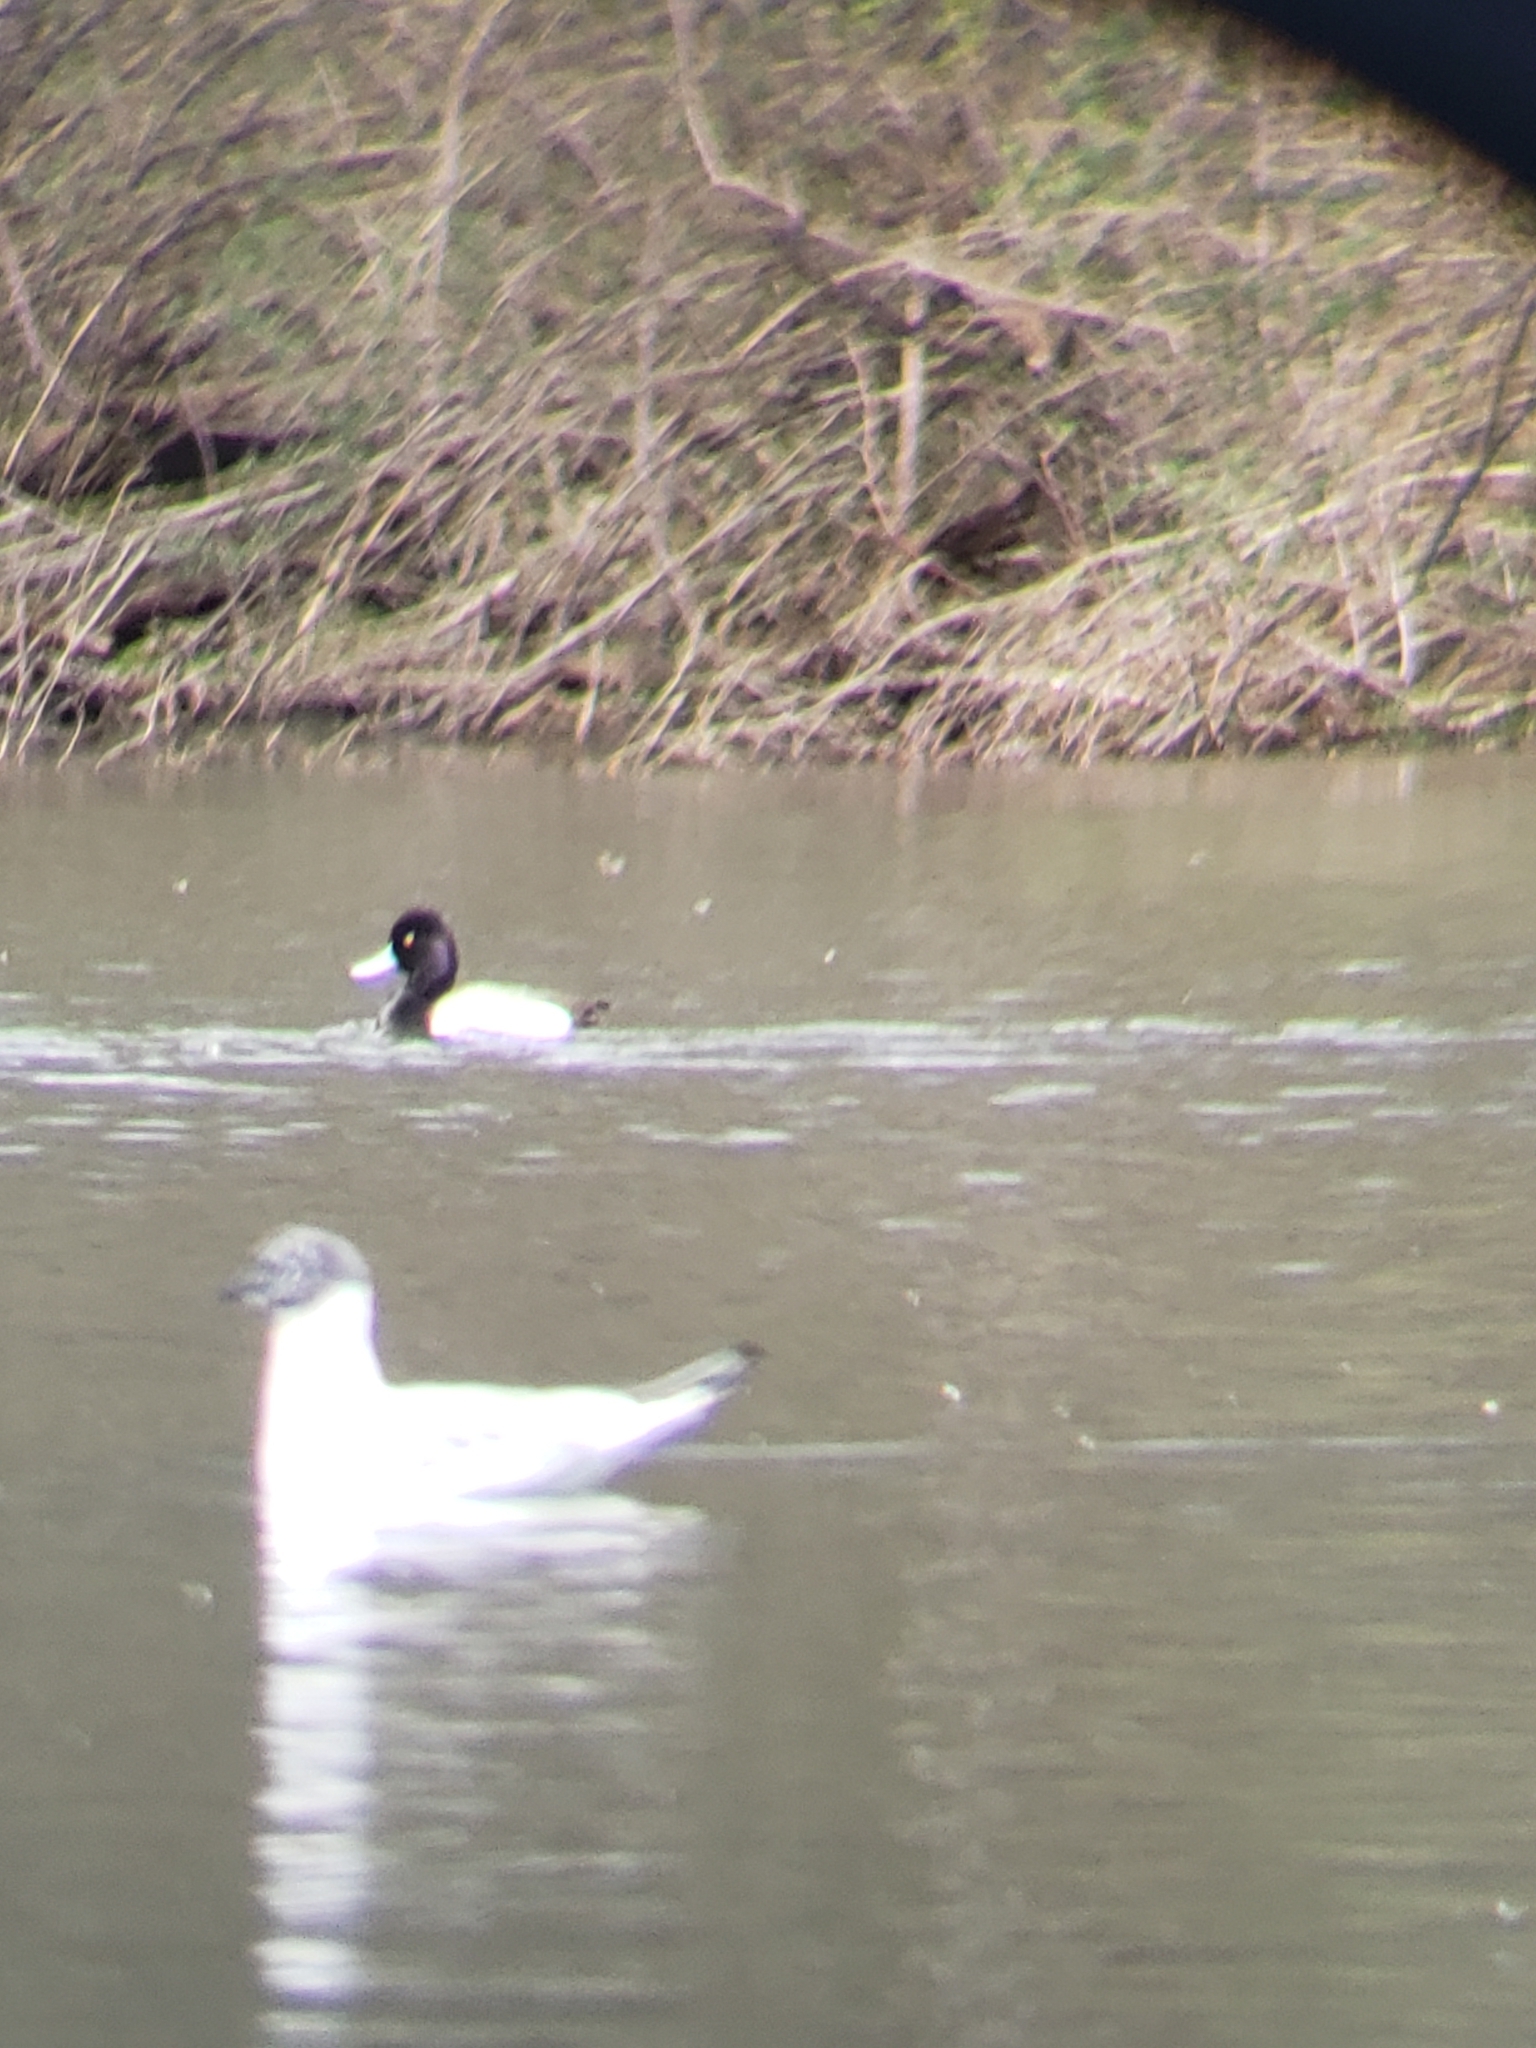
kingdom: Animalia
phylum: Chordata
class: Aves
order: Anseriformes
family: Anatidae
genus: Aythya
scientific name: Aythya affinis
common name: Lesser scaup
